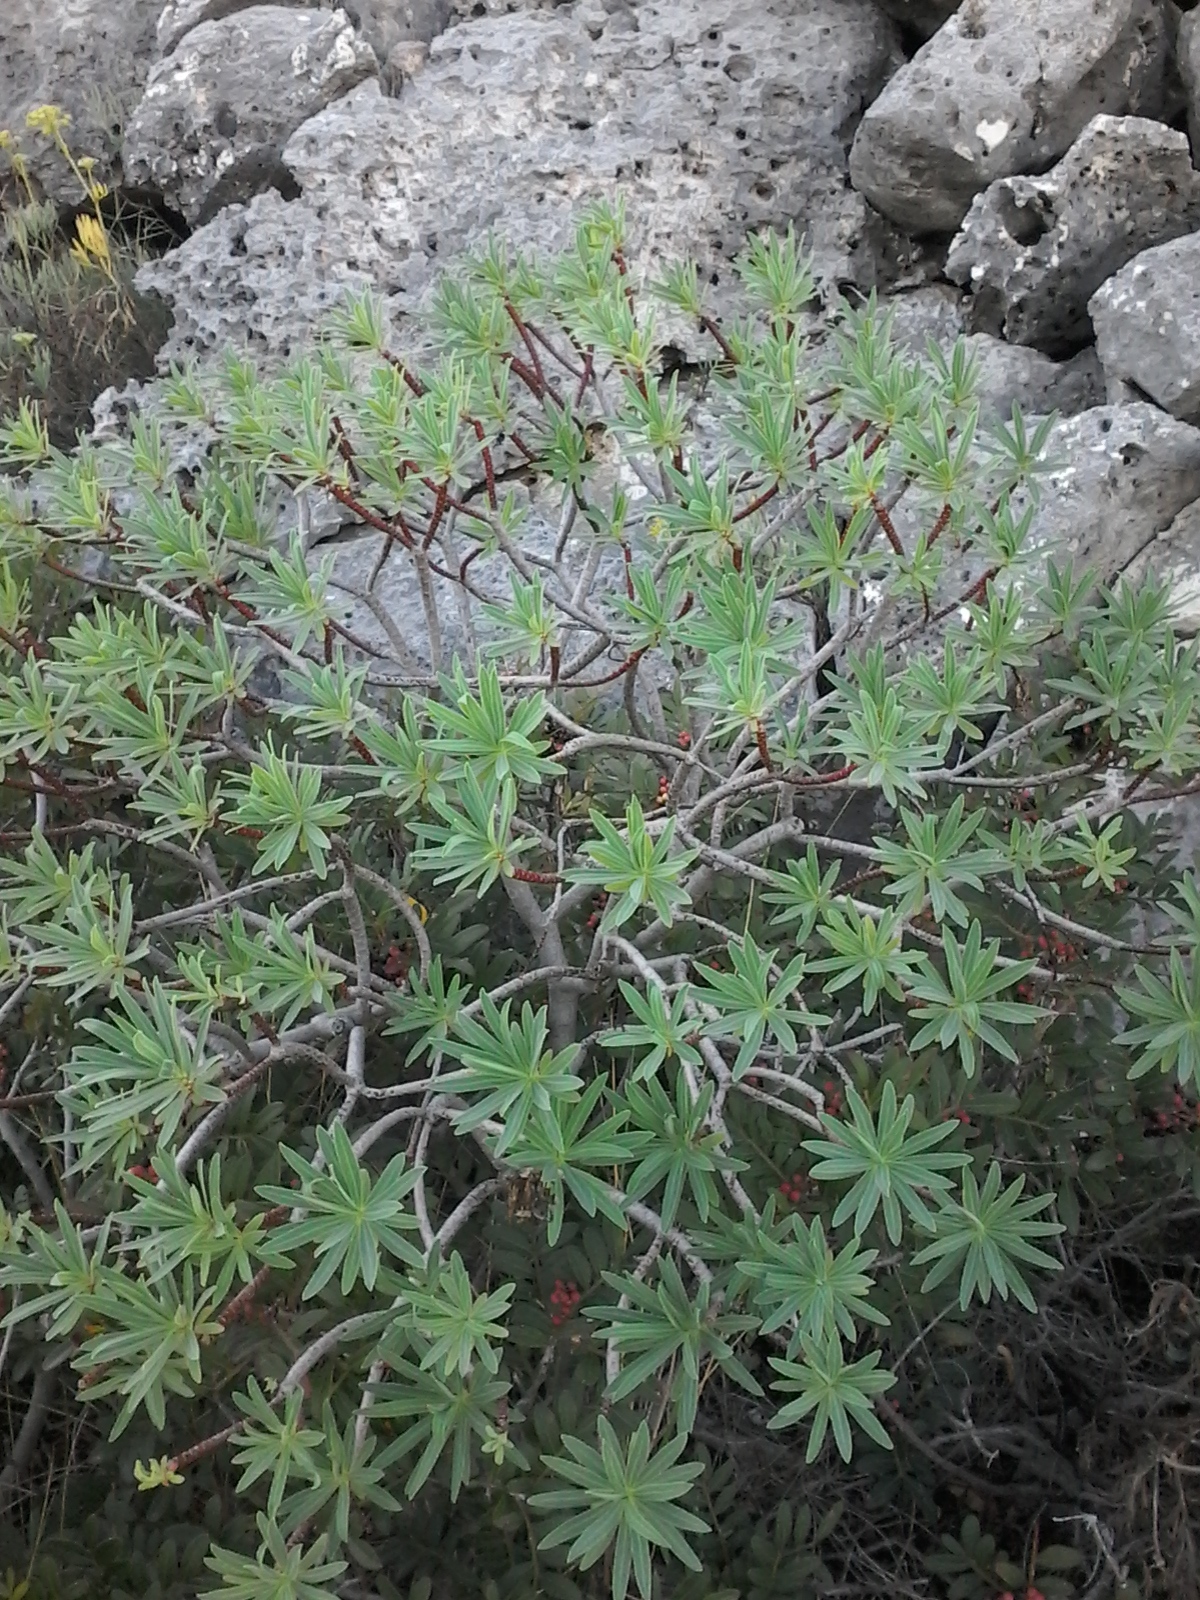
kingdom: Plantae
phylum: Tracheophyta
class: Magnoliopsida
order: Malpighiales
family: Euphorbiaceae
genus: Euphorbia
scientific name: Euphorbia dendroides
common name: Tree spurge
